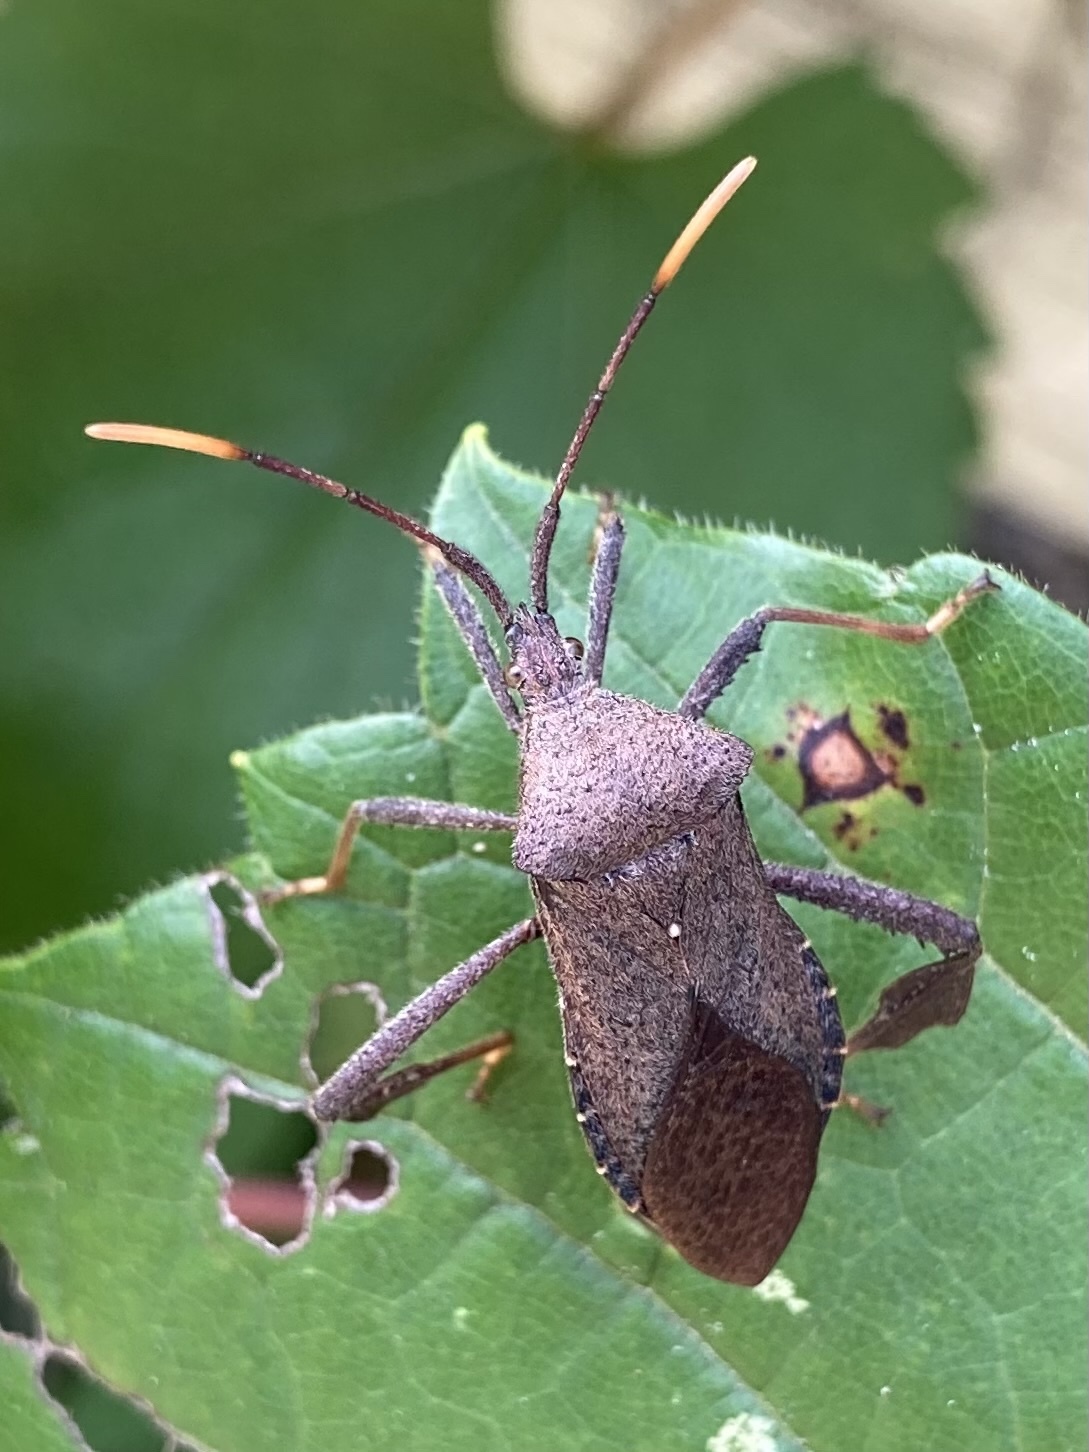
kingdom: Animalia
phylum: Arthropoda
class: Insecta
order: Hemiptera
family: Coreidae
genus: Acanthocephala
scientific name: Acanthocephala terminalis
